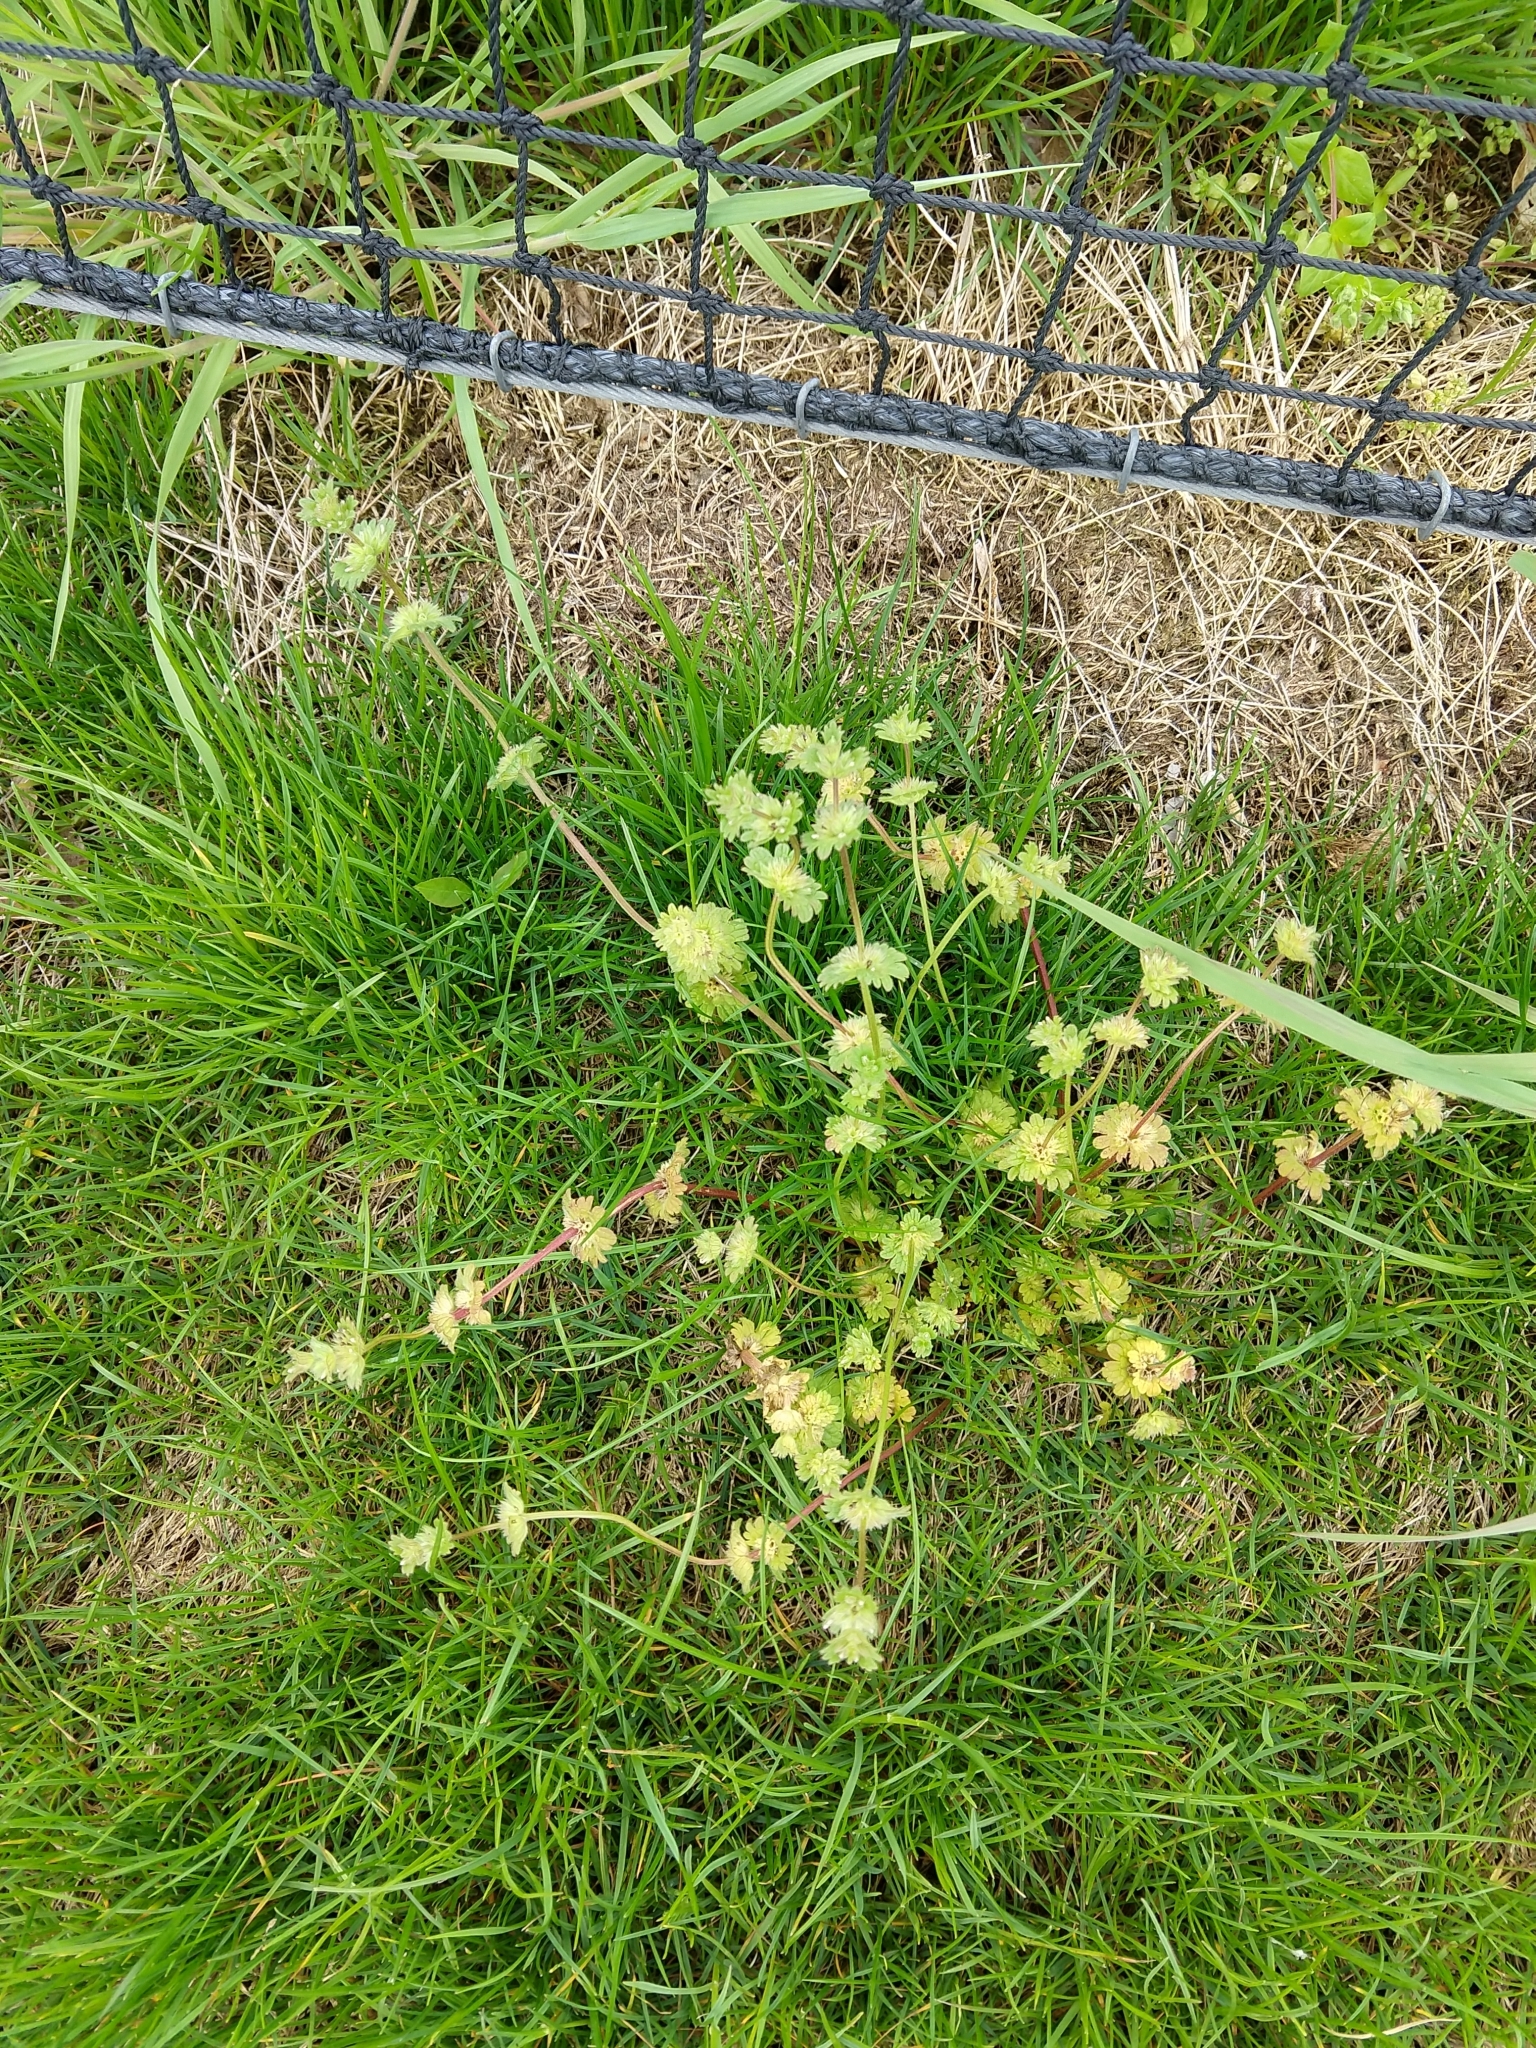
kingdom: Plantae
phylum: Tracheophyta
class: Magnoliopsida
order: Lamiales
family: Lamiaceae
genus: Lamium
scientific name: Lamium amplexicaule
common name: Henbit dead-nettle
